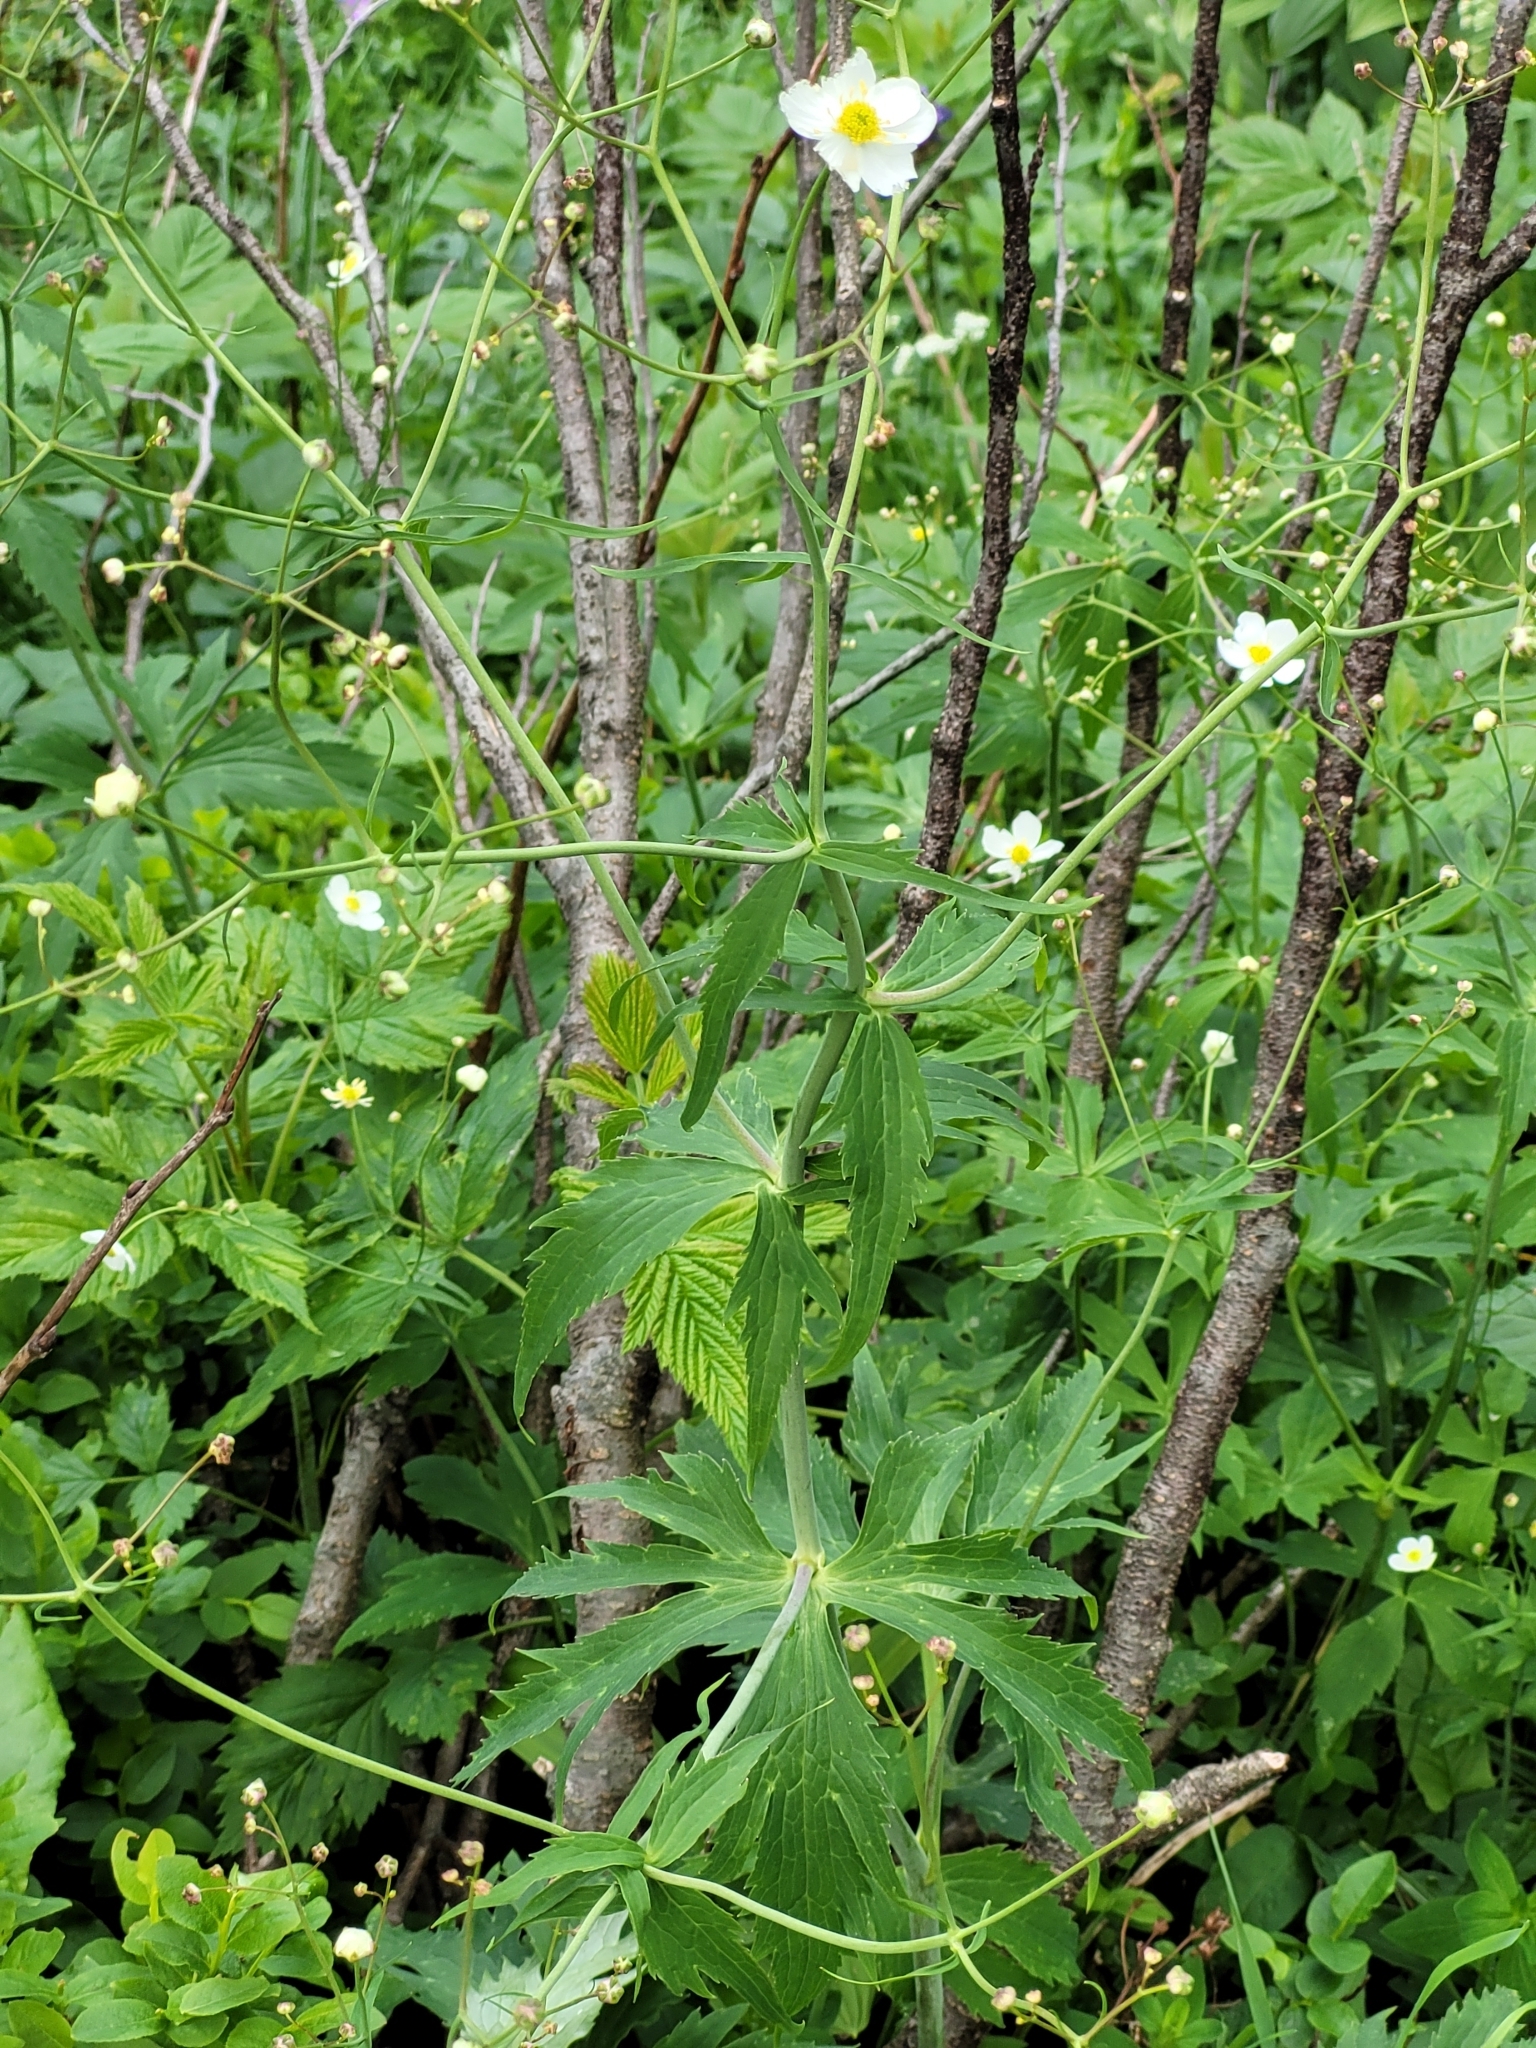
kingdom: Plantae
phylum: Tracheophyta
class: Magnoliopsida
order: Ranunculales
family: Ranunculaceae
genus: Ranunculus
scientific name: Ranunculus platanifolius
